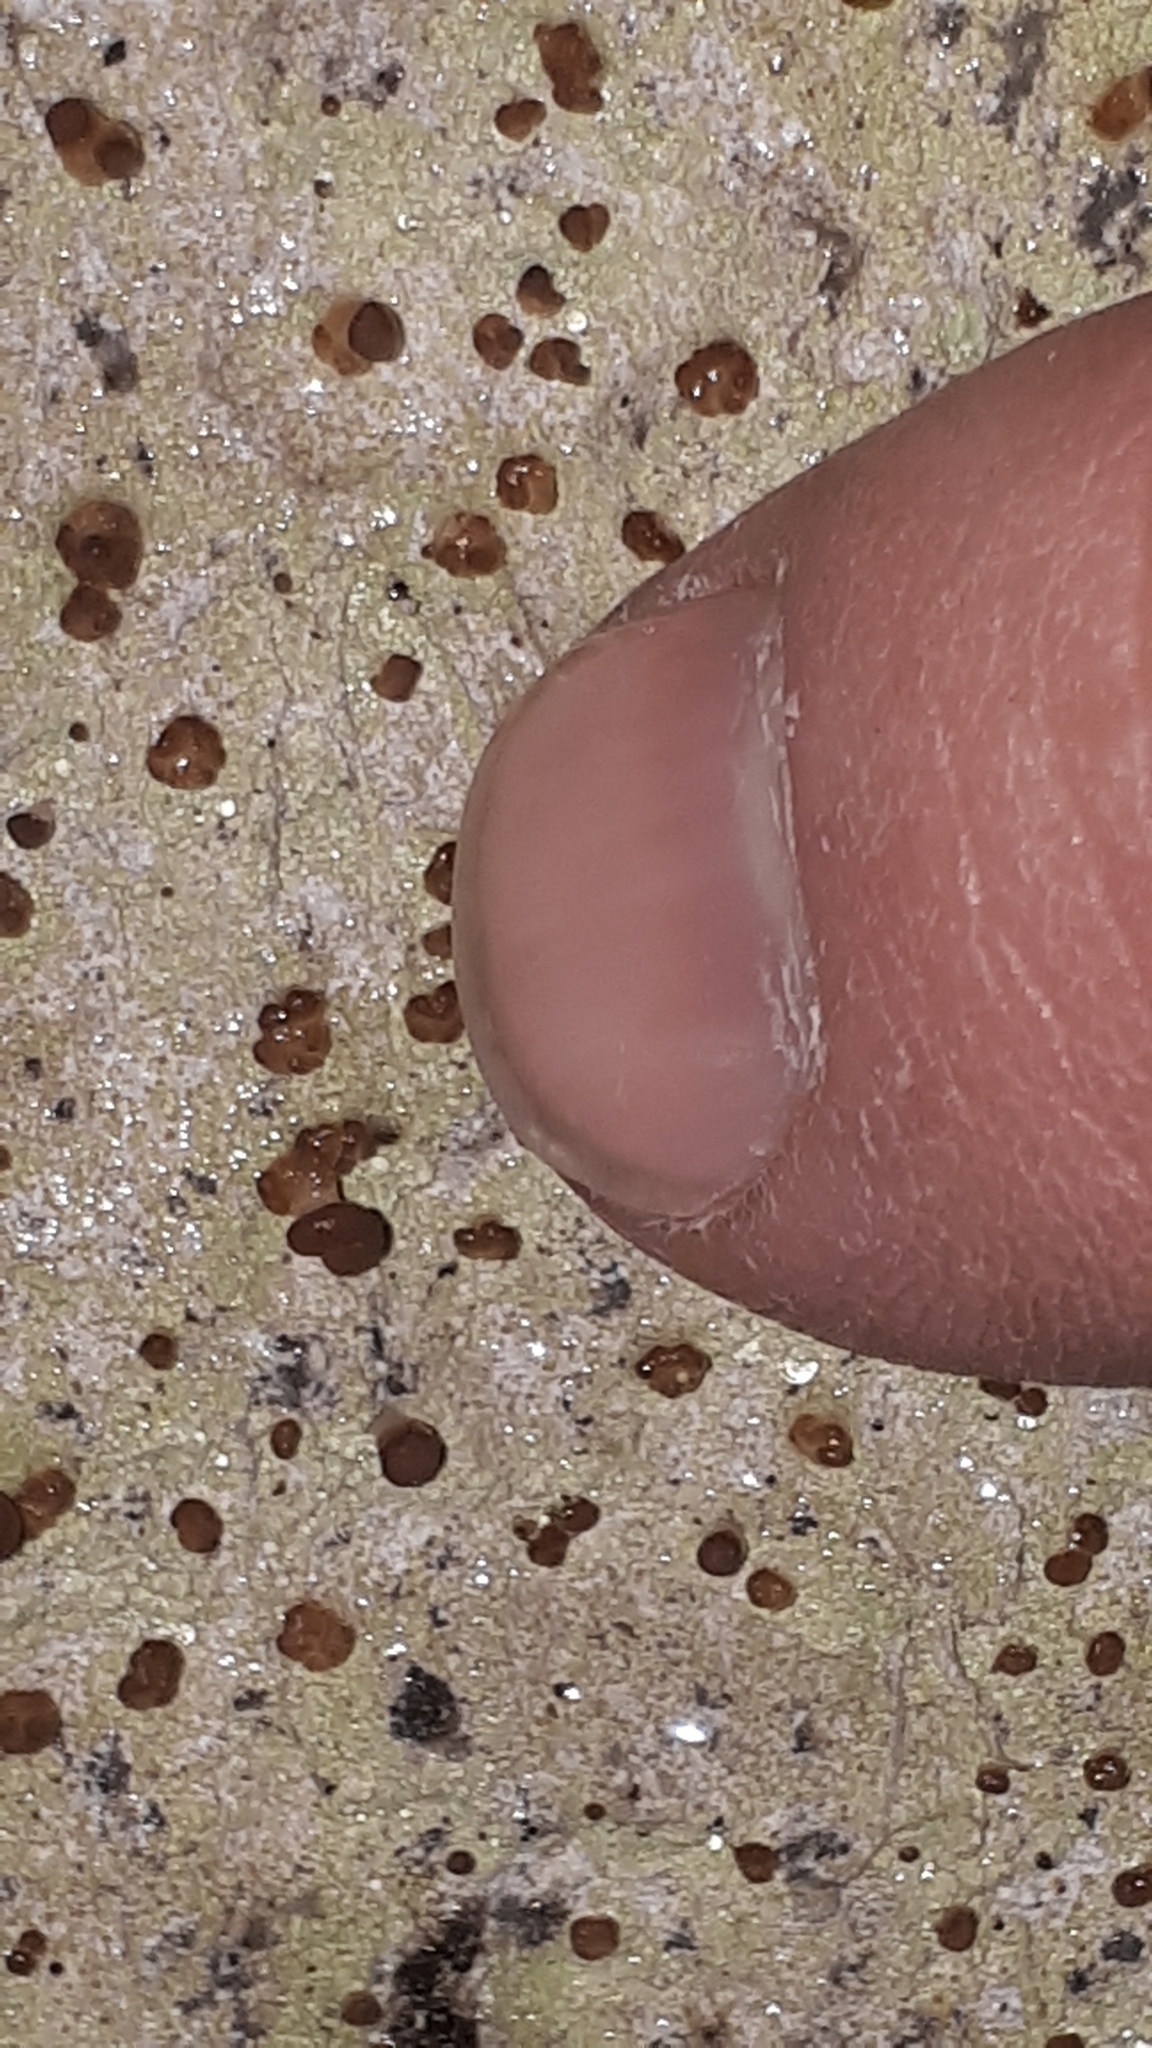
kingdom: Fungi
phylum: Ascomycota
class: Lecanoromycetes
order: Baeomycetales
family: Baeomycetaceae
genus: Baeomyces
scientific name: Baeomyces rufus
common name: Brown beret lichen
